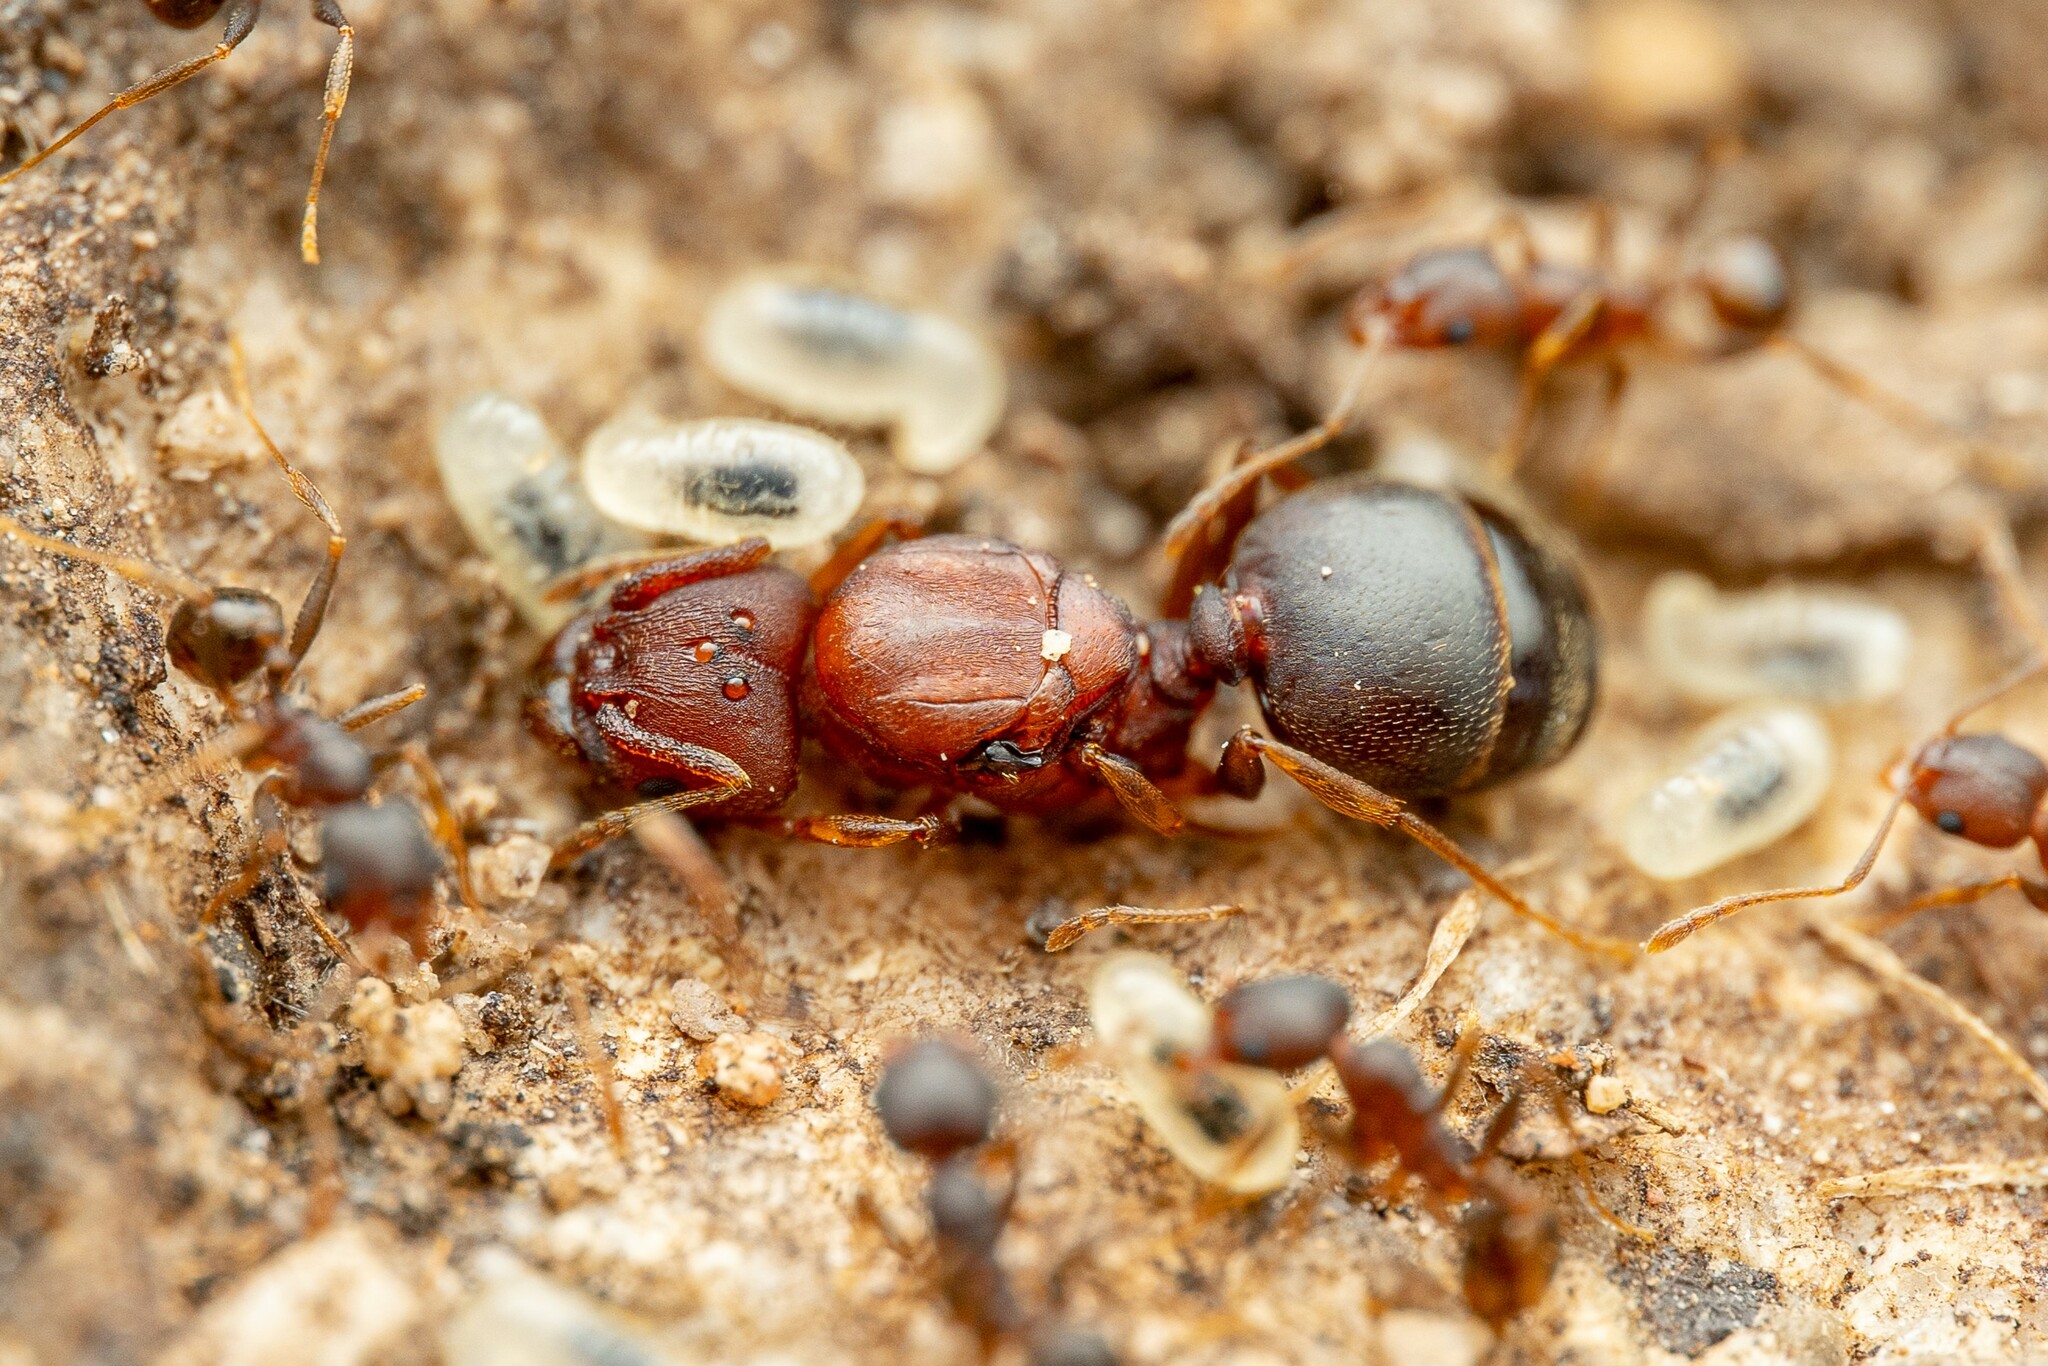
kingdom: Animalia
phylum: Arthropoda
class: Insecta
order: Hymenoptera
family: Formicidae
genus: Pheidole
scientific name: Pheidole
